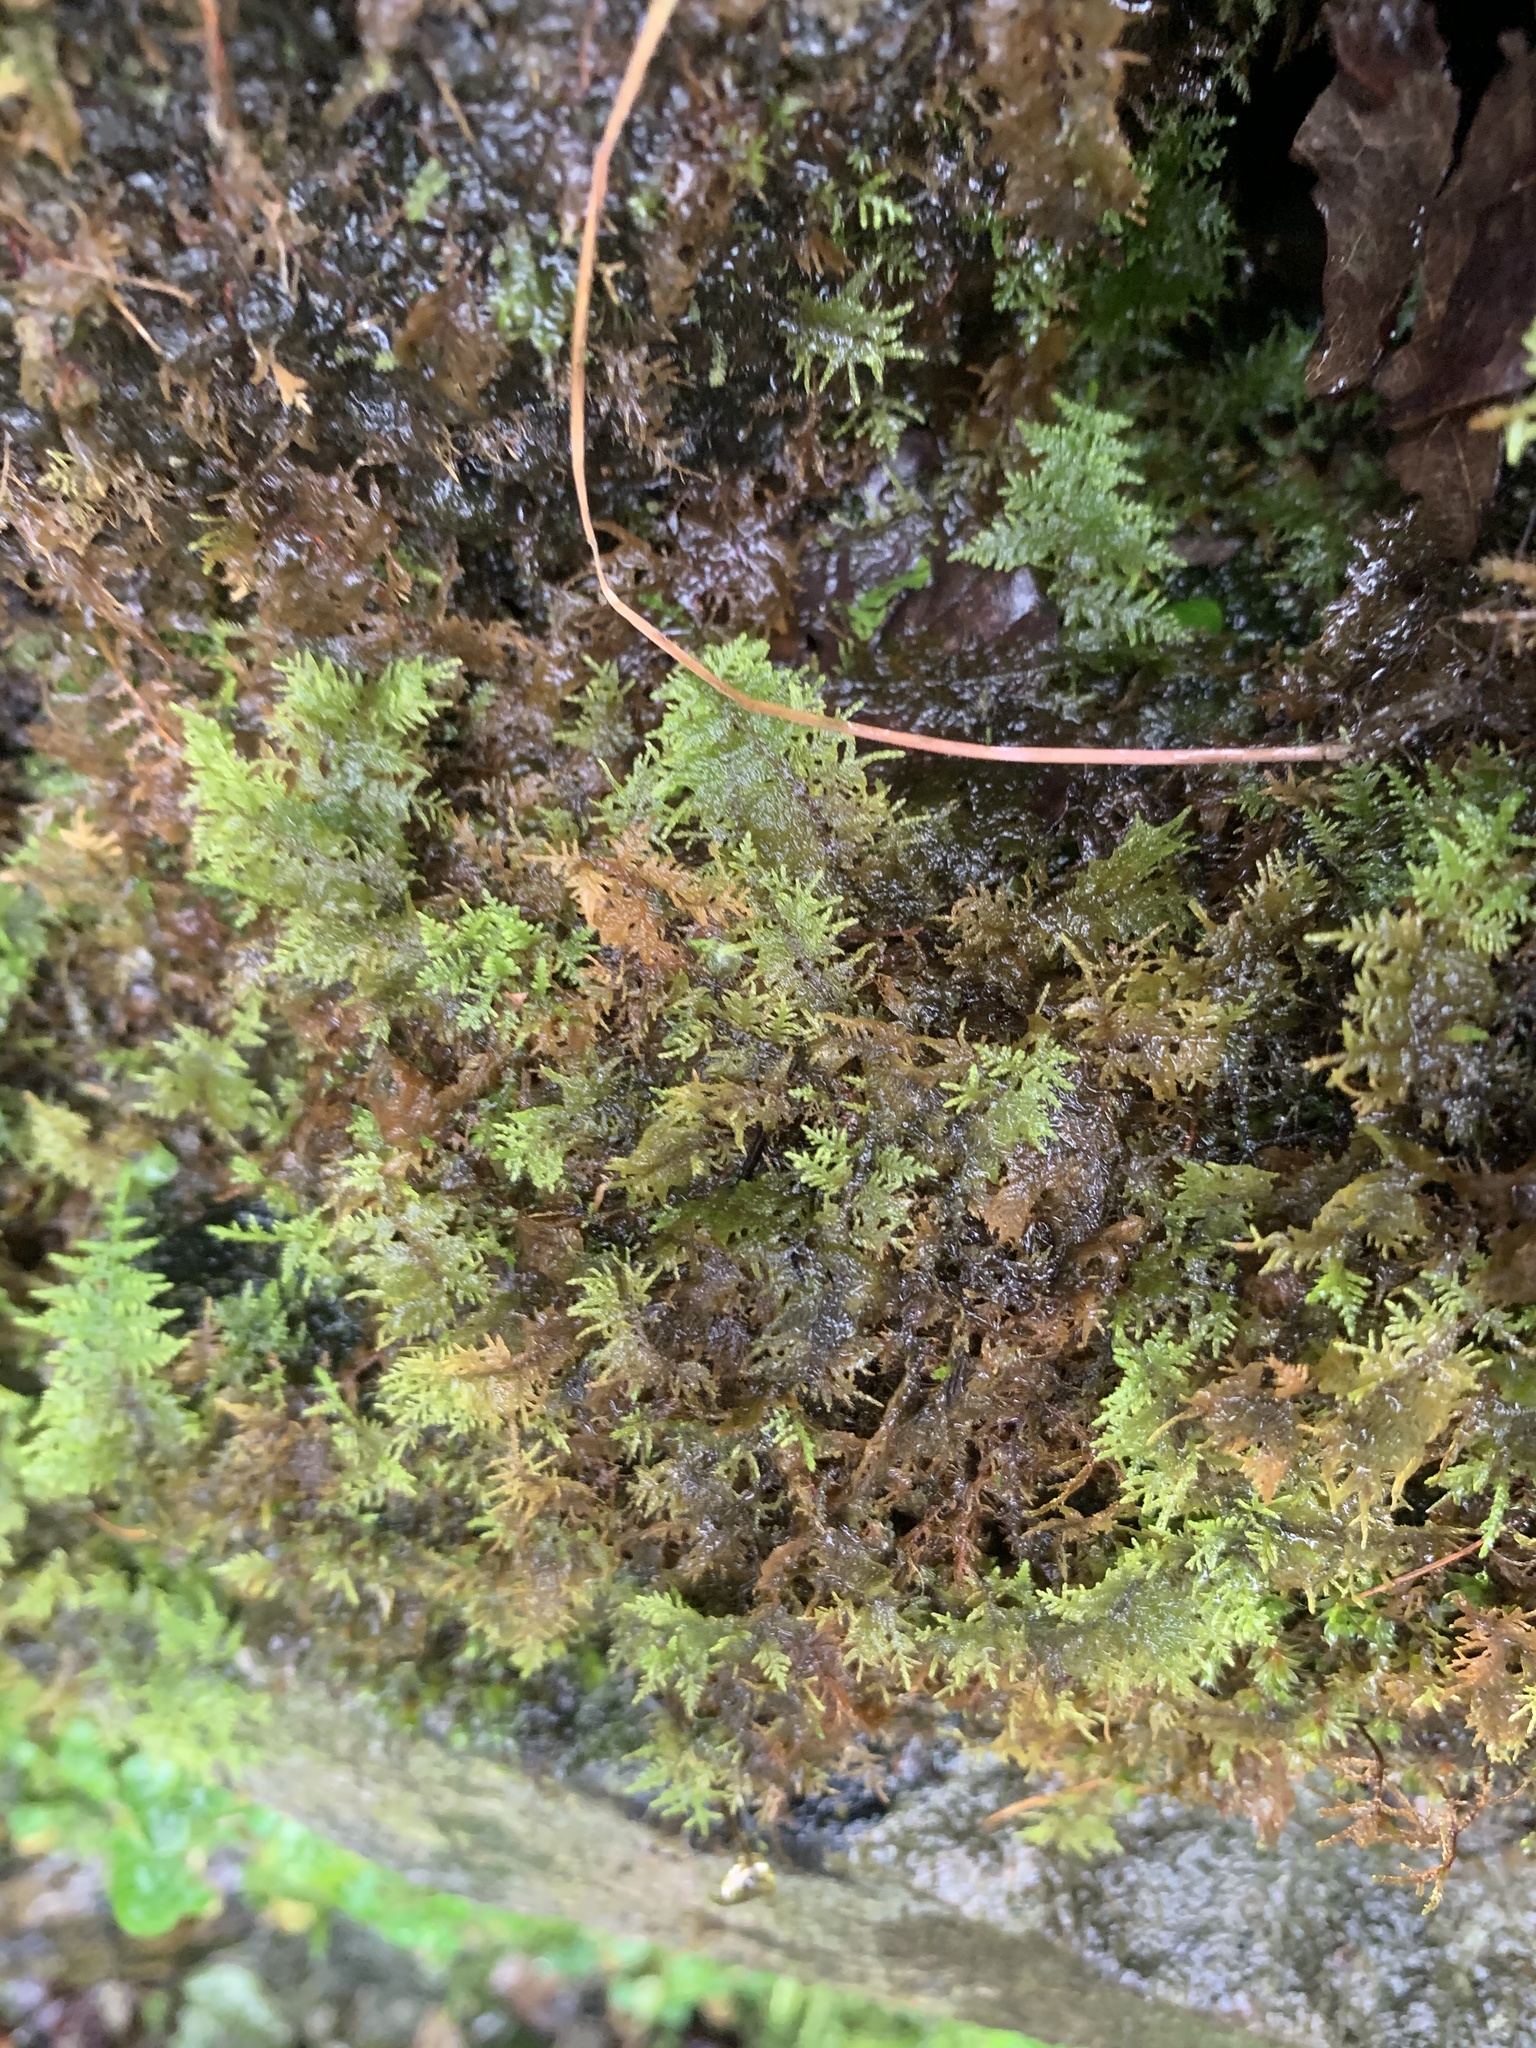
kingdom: Plantae
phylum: Bryophyta
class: Bryopsida
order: Hypnales
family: Thuidiaceae
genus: Thuidium
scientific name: Thuidium tamariscinum
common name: Common tamarisk-moss
